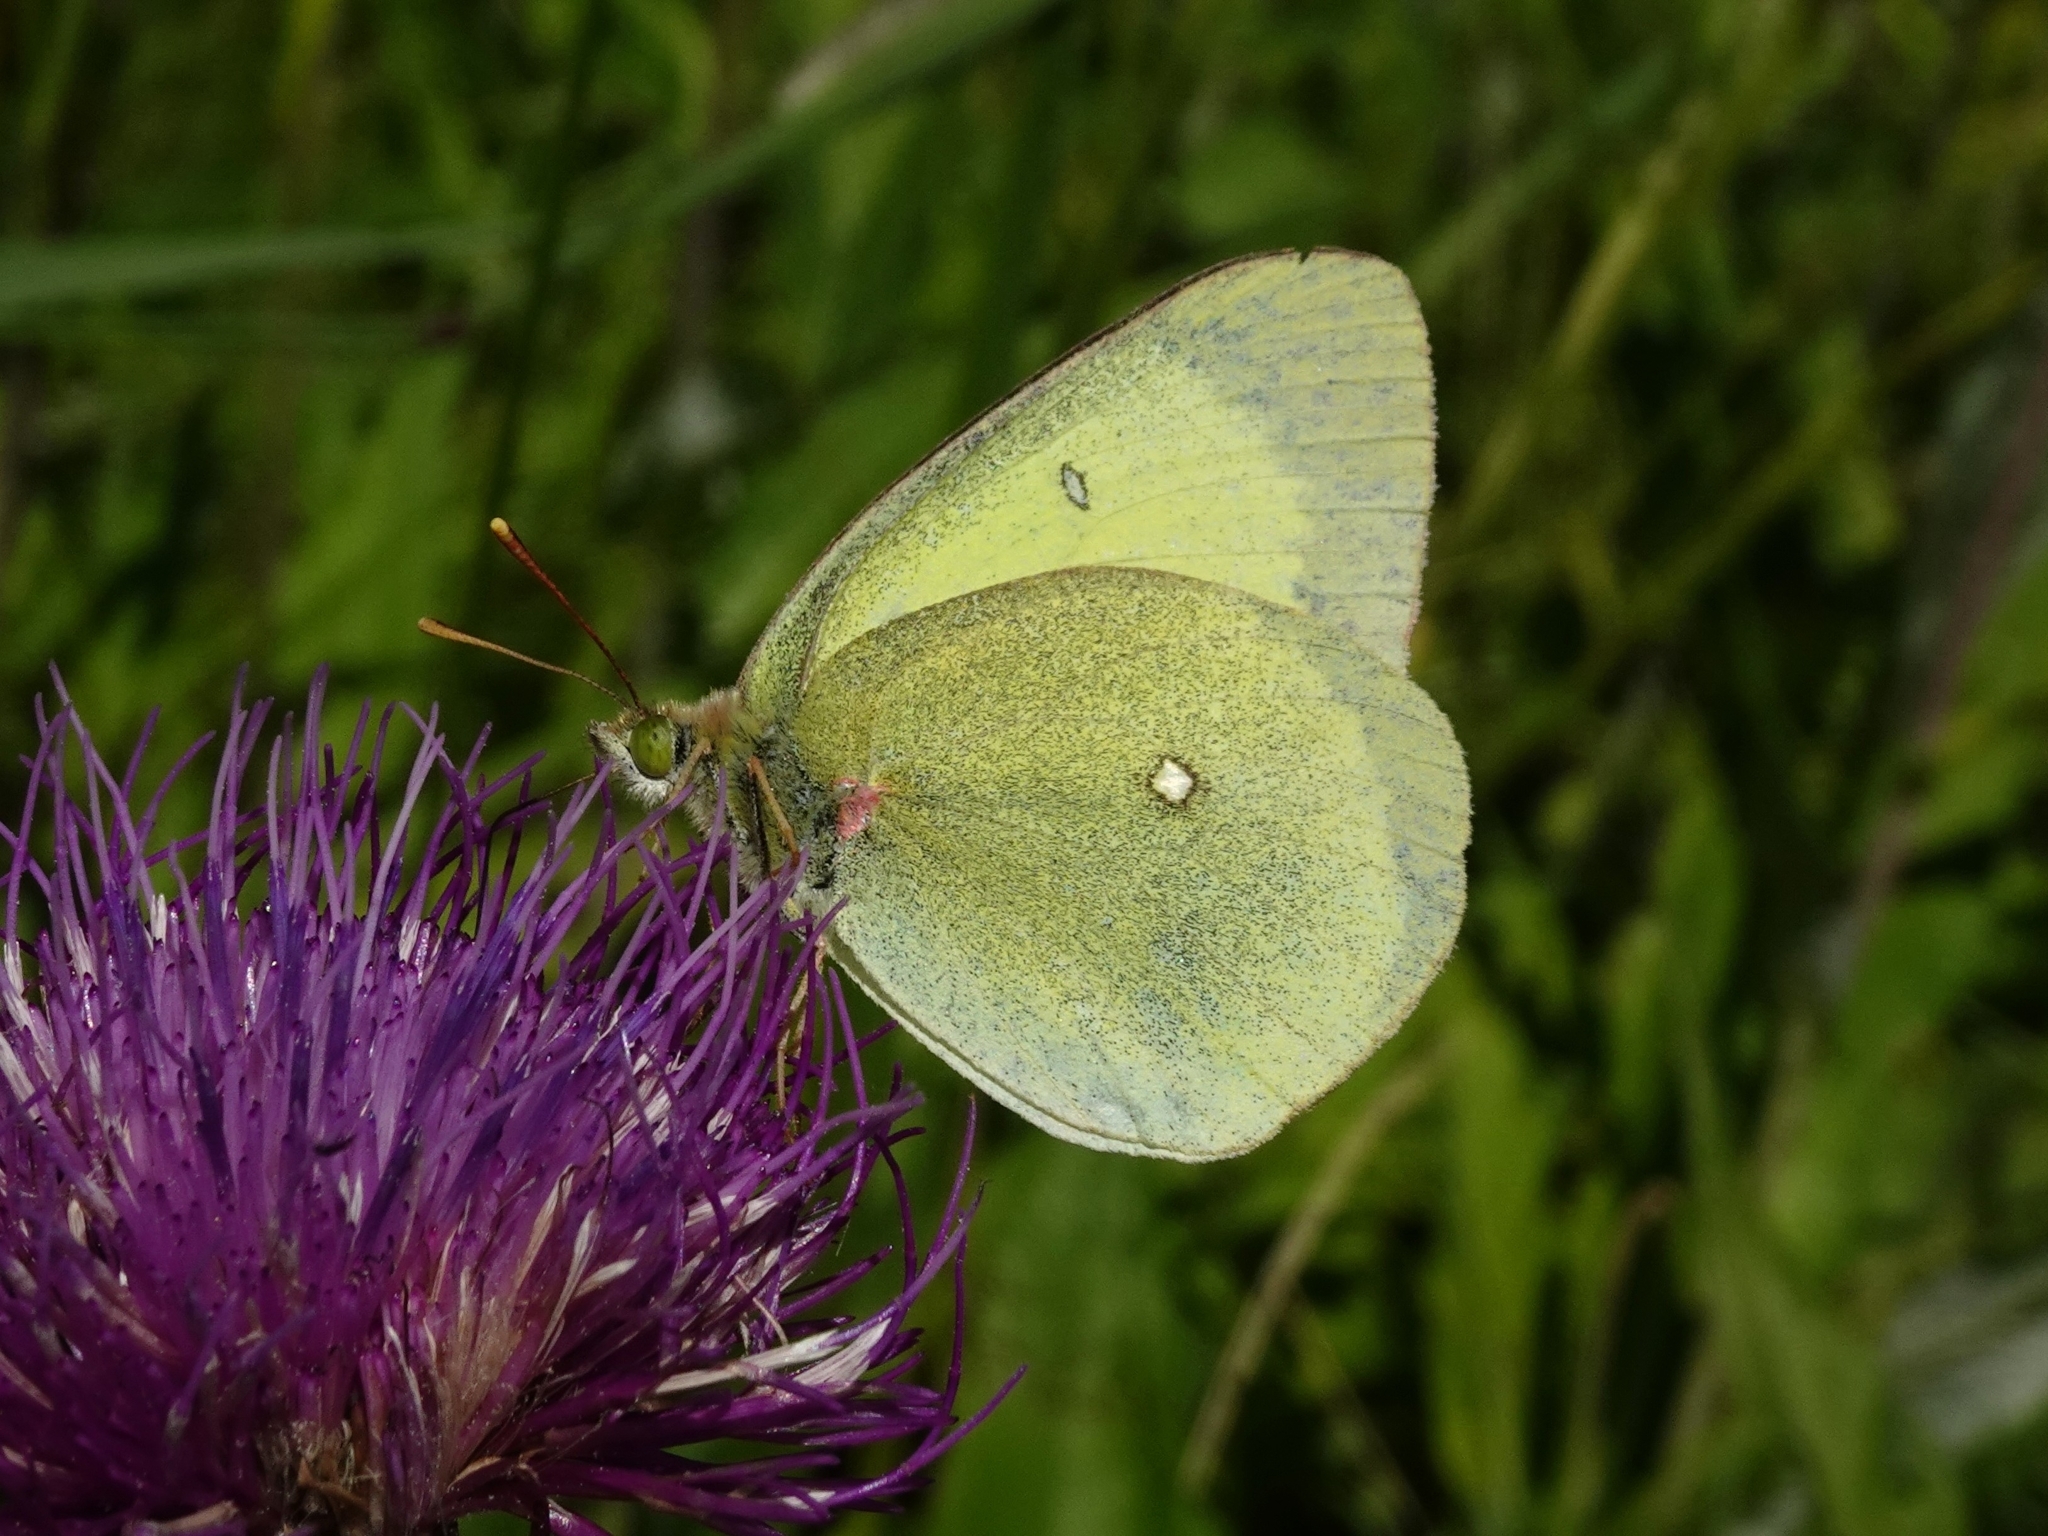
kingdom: Animalia
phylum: Arthropoda
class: Insecta
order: Lepidoptera
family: Pieridae
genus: Colias
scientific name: Colias palaeno
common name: Moorland clouded yellow
